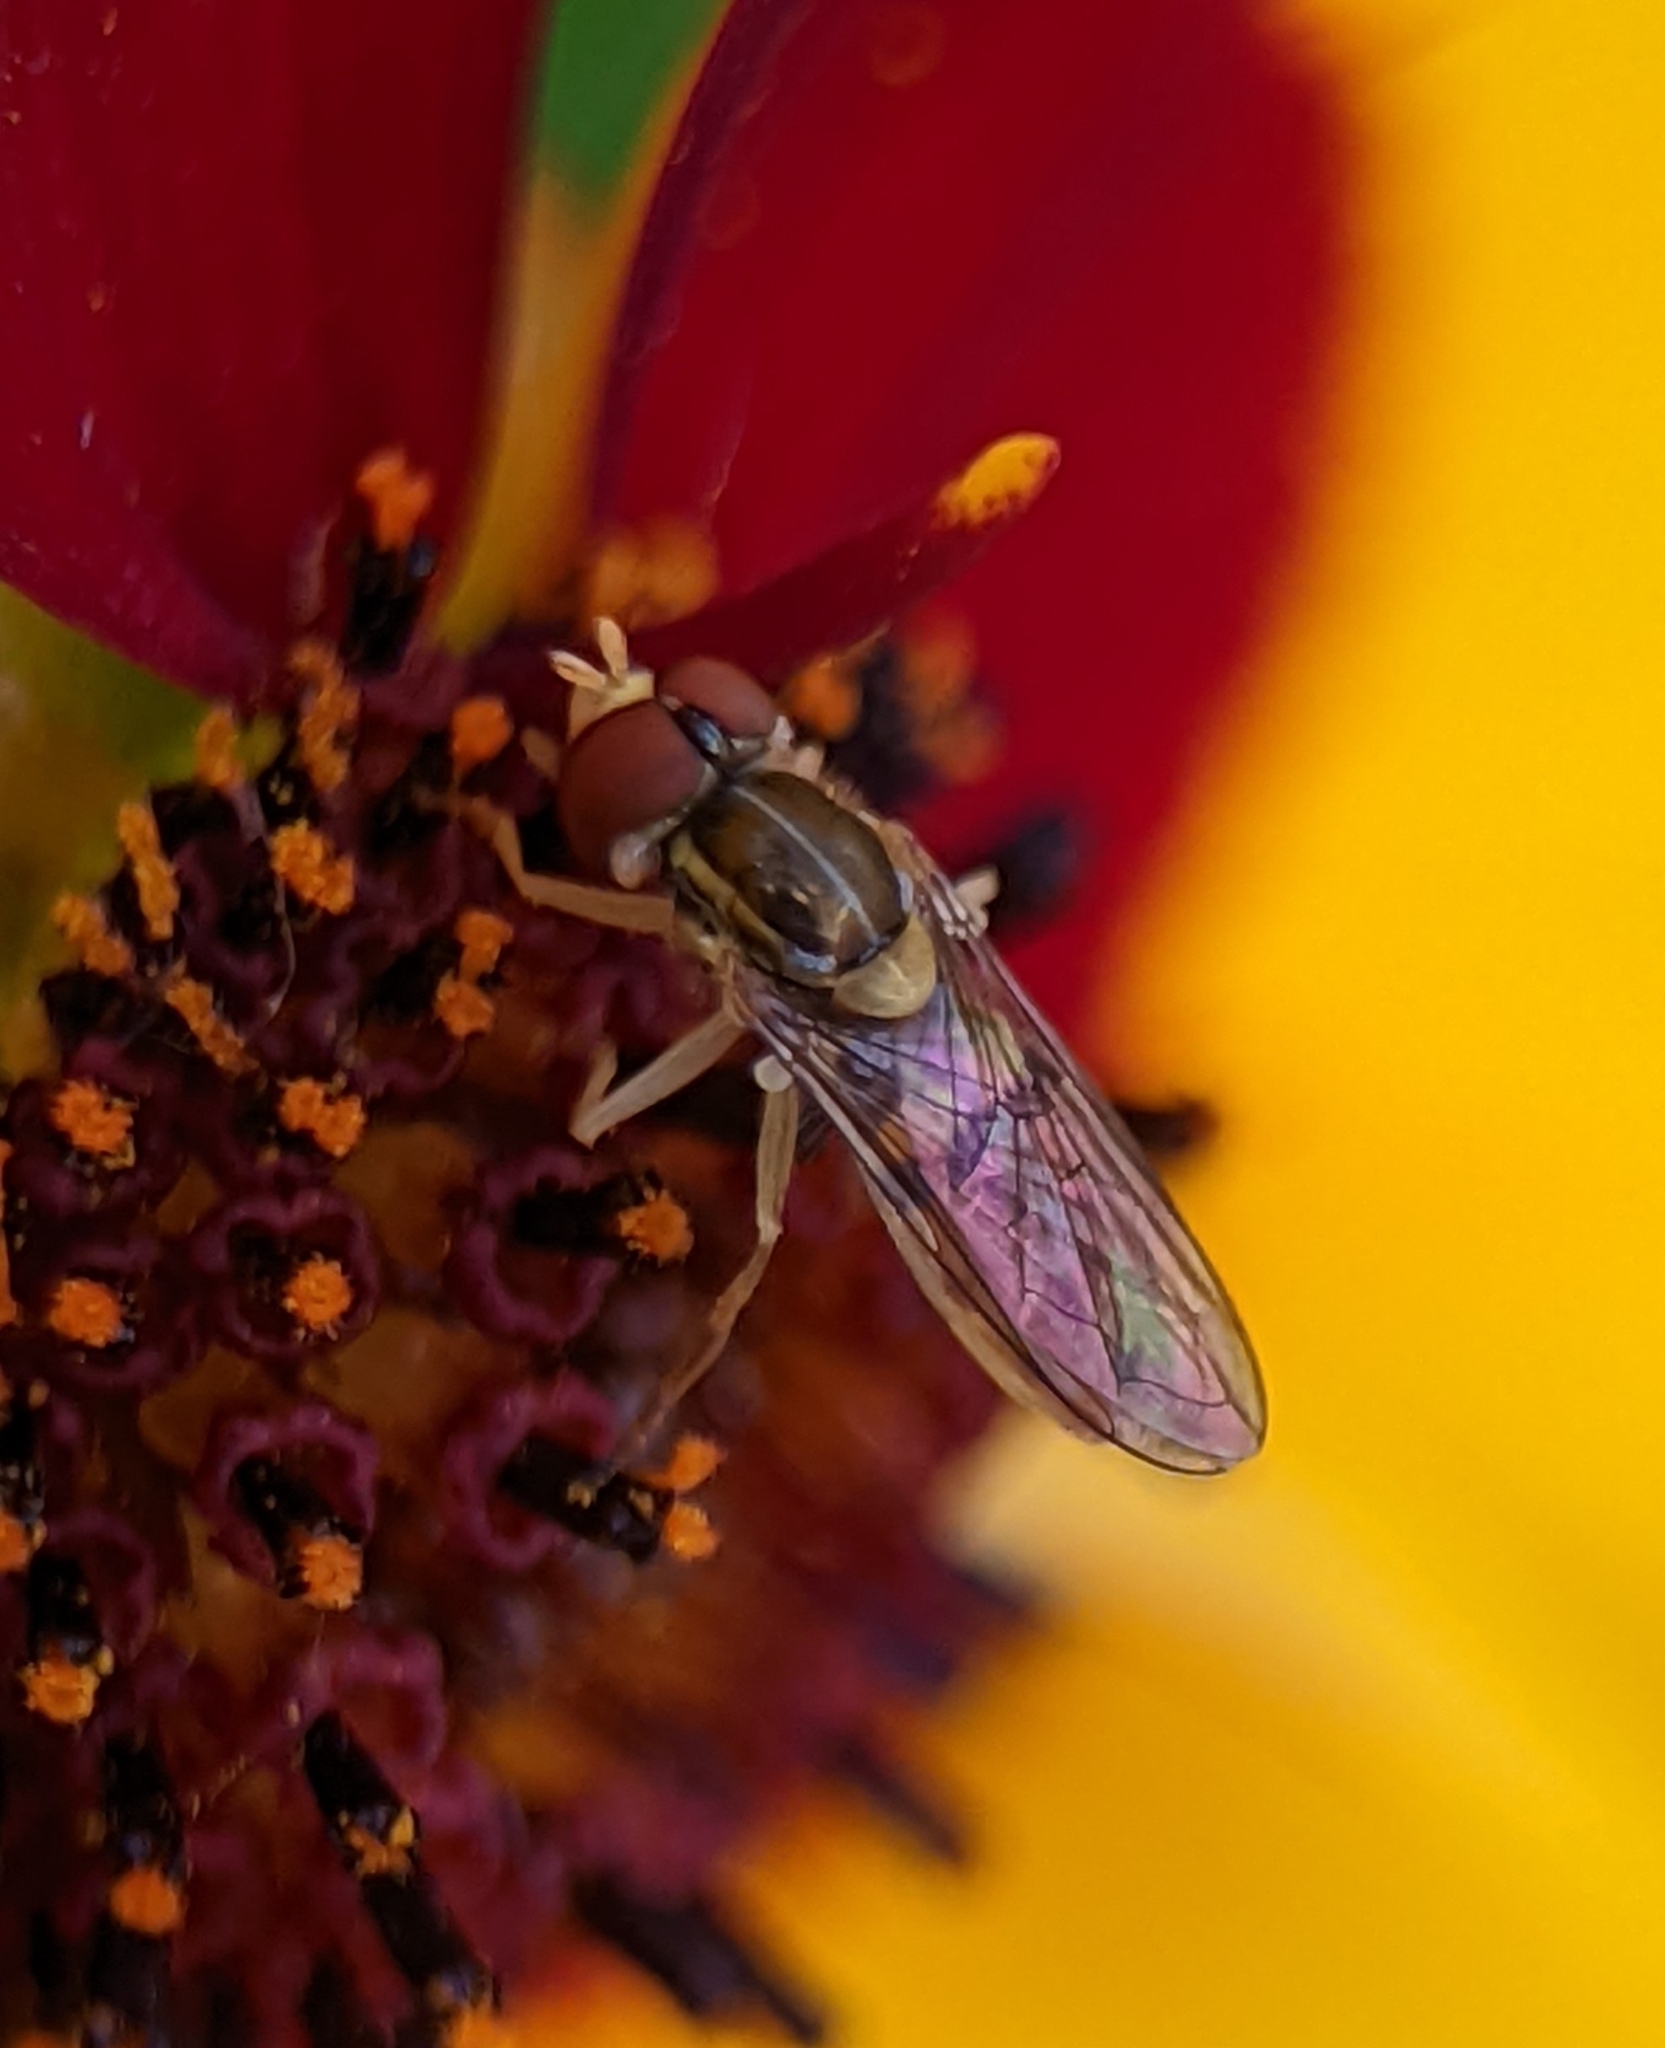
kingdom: Animalia
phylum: Arthropoda
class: Insecta
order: Diptera
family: Syrphidae
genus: Toxomerus
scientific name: Toxomerus marginatus
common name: Syrphid fly
